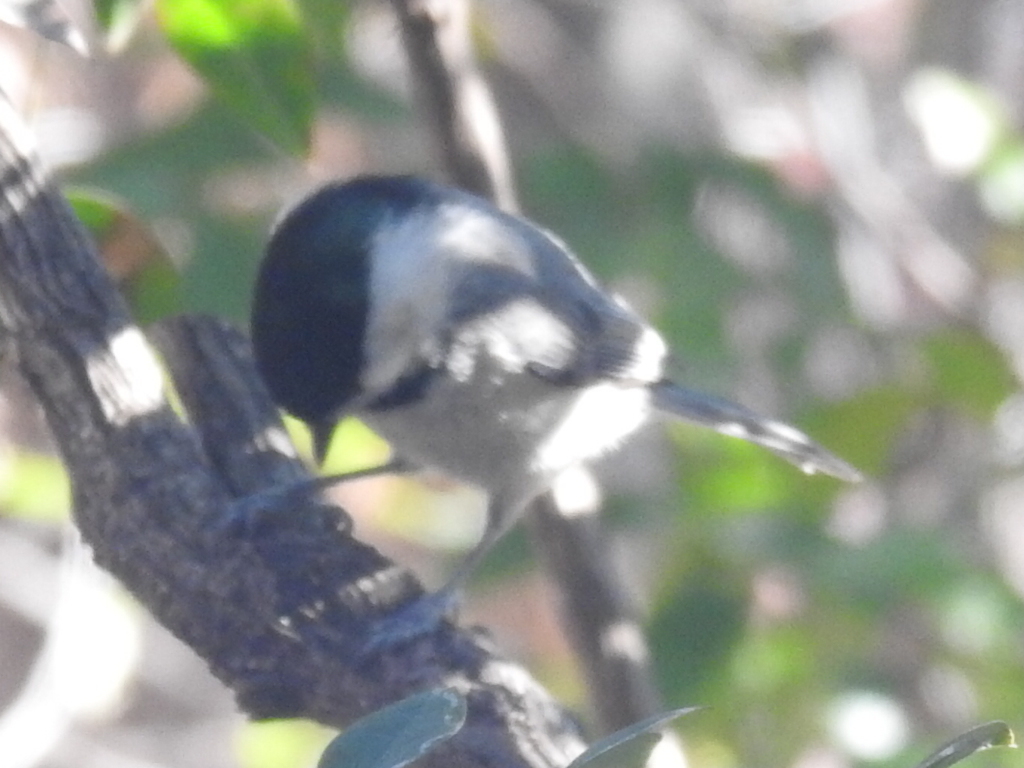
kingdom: Animalia
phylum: Chordata
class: Aves
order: Passeriformes
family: Paridae
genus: Poecile
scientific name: Poecile carolinensis
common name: Carolina chickadee
